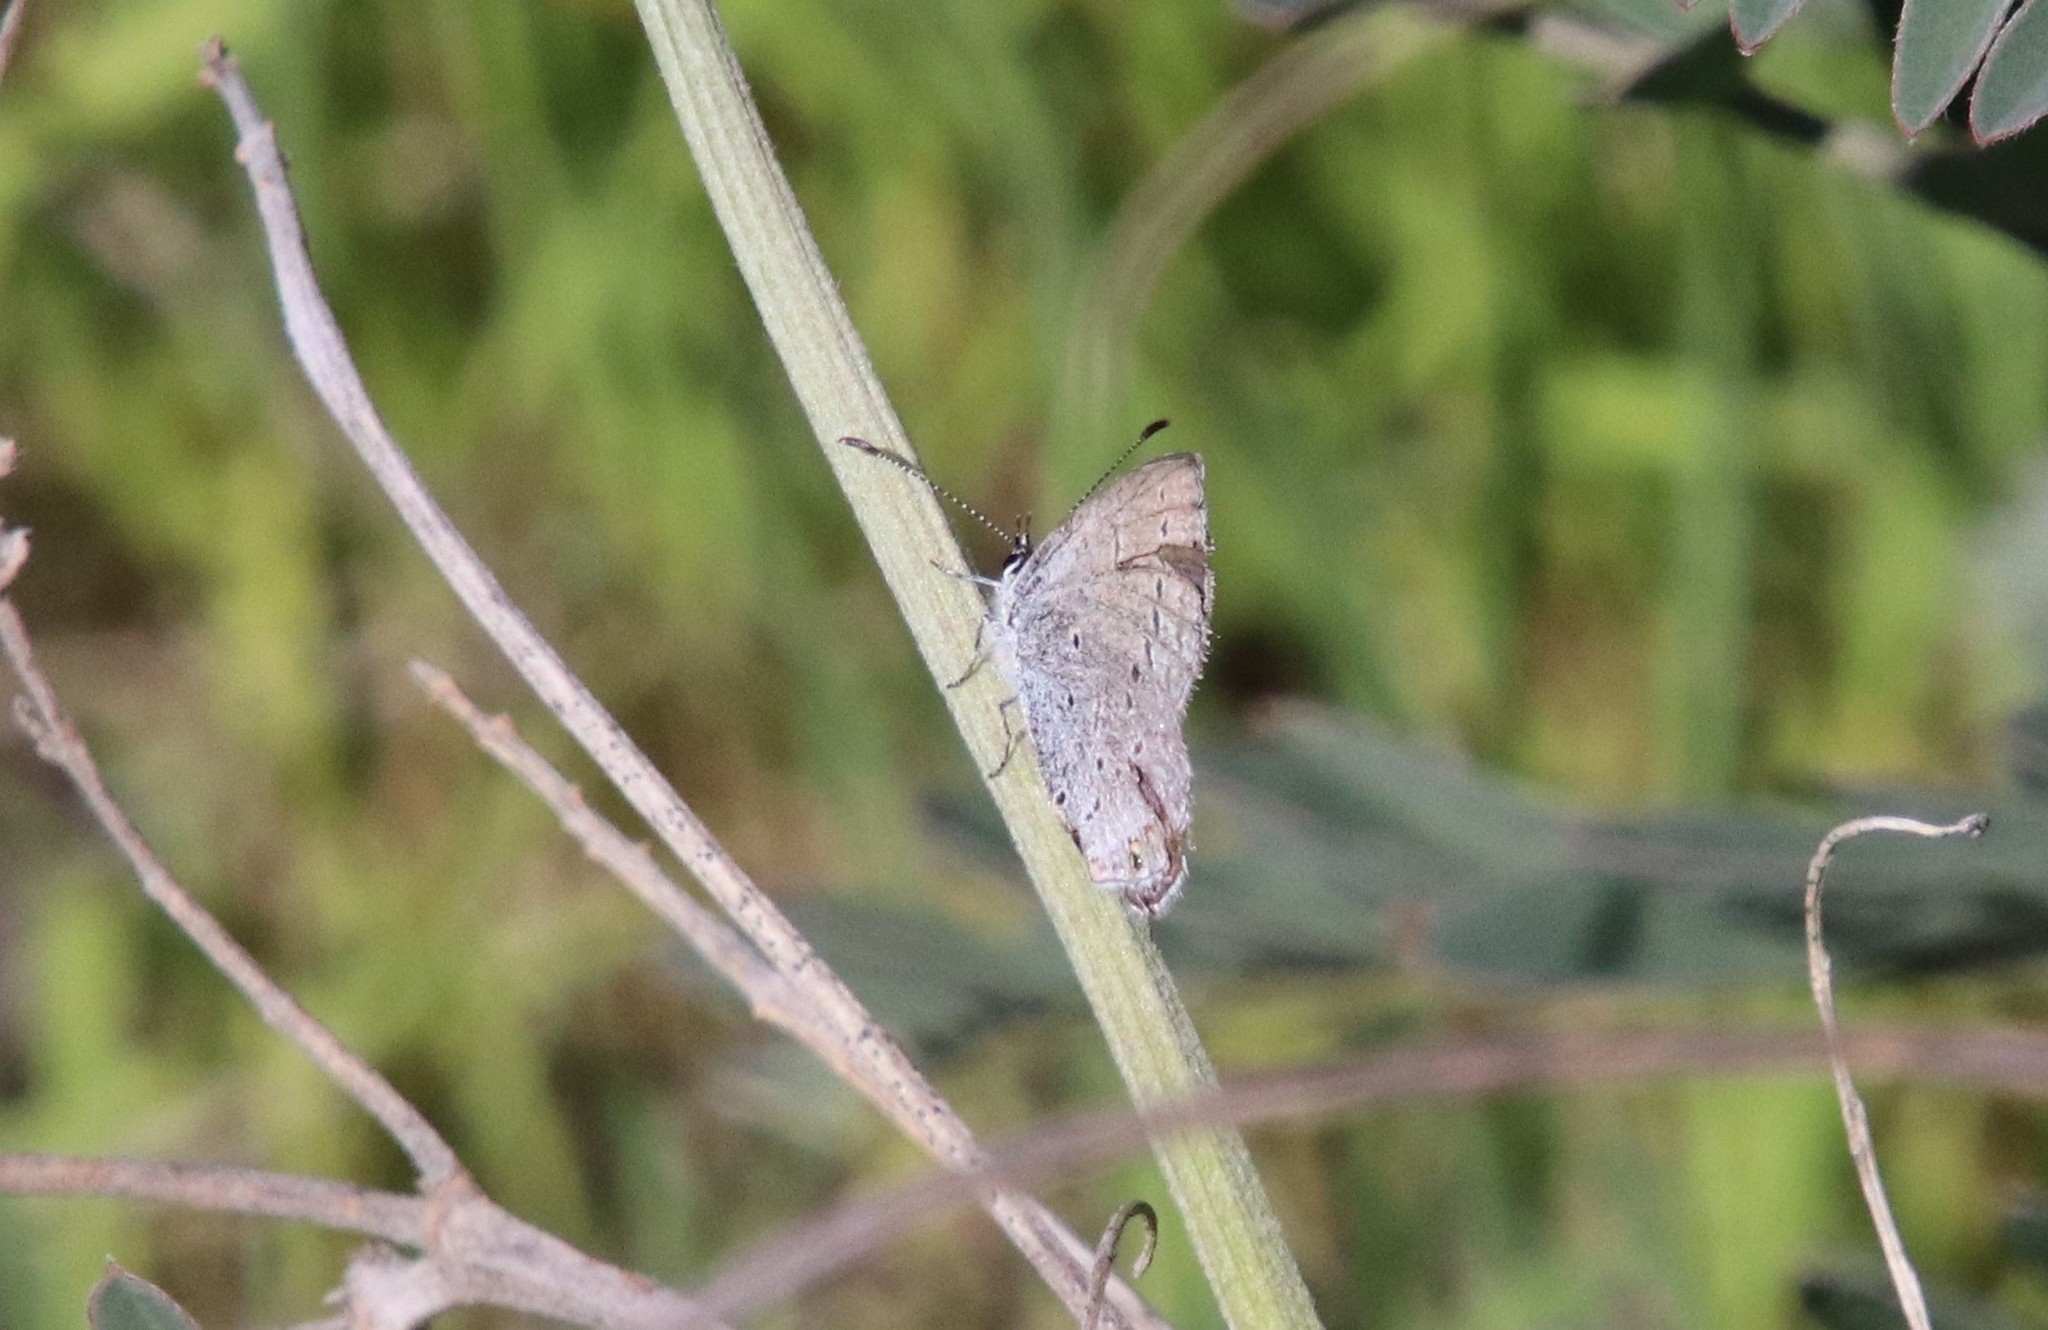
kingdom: Animalia
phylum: Arthropoda
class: Insecta
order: Lepidoptera
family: Lycaenidae
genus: Elkalyce
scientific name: Elkalyce amyntula
